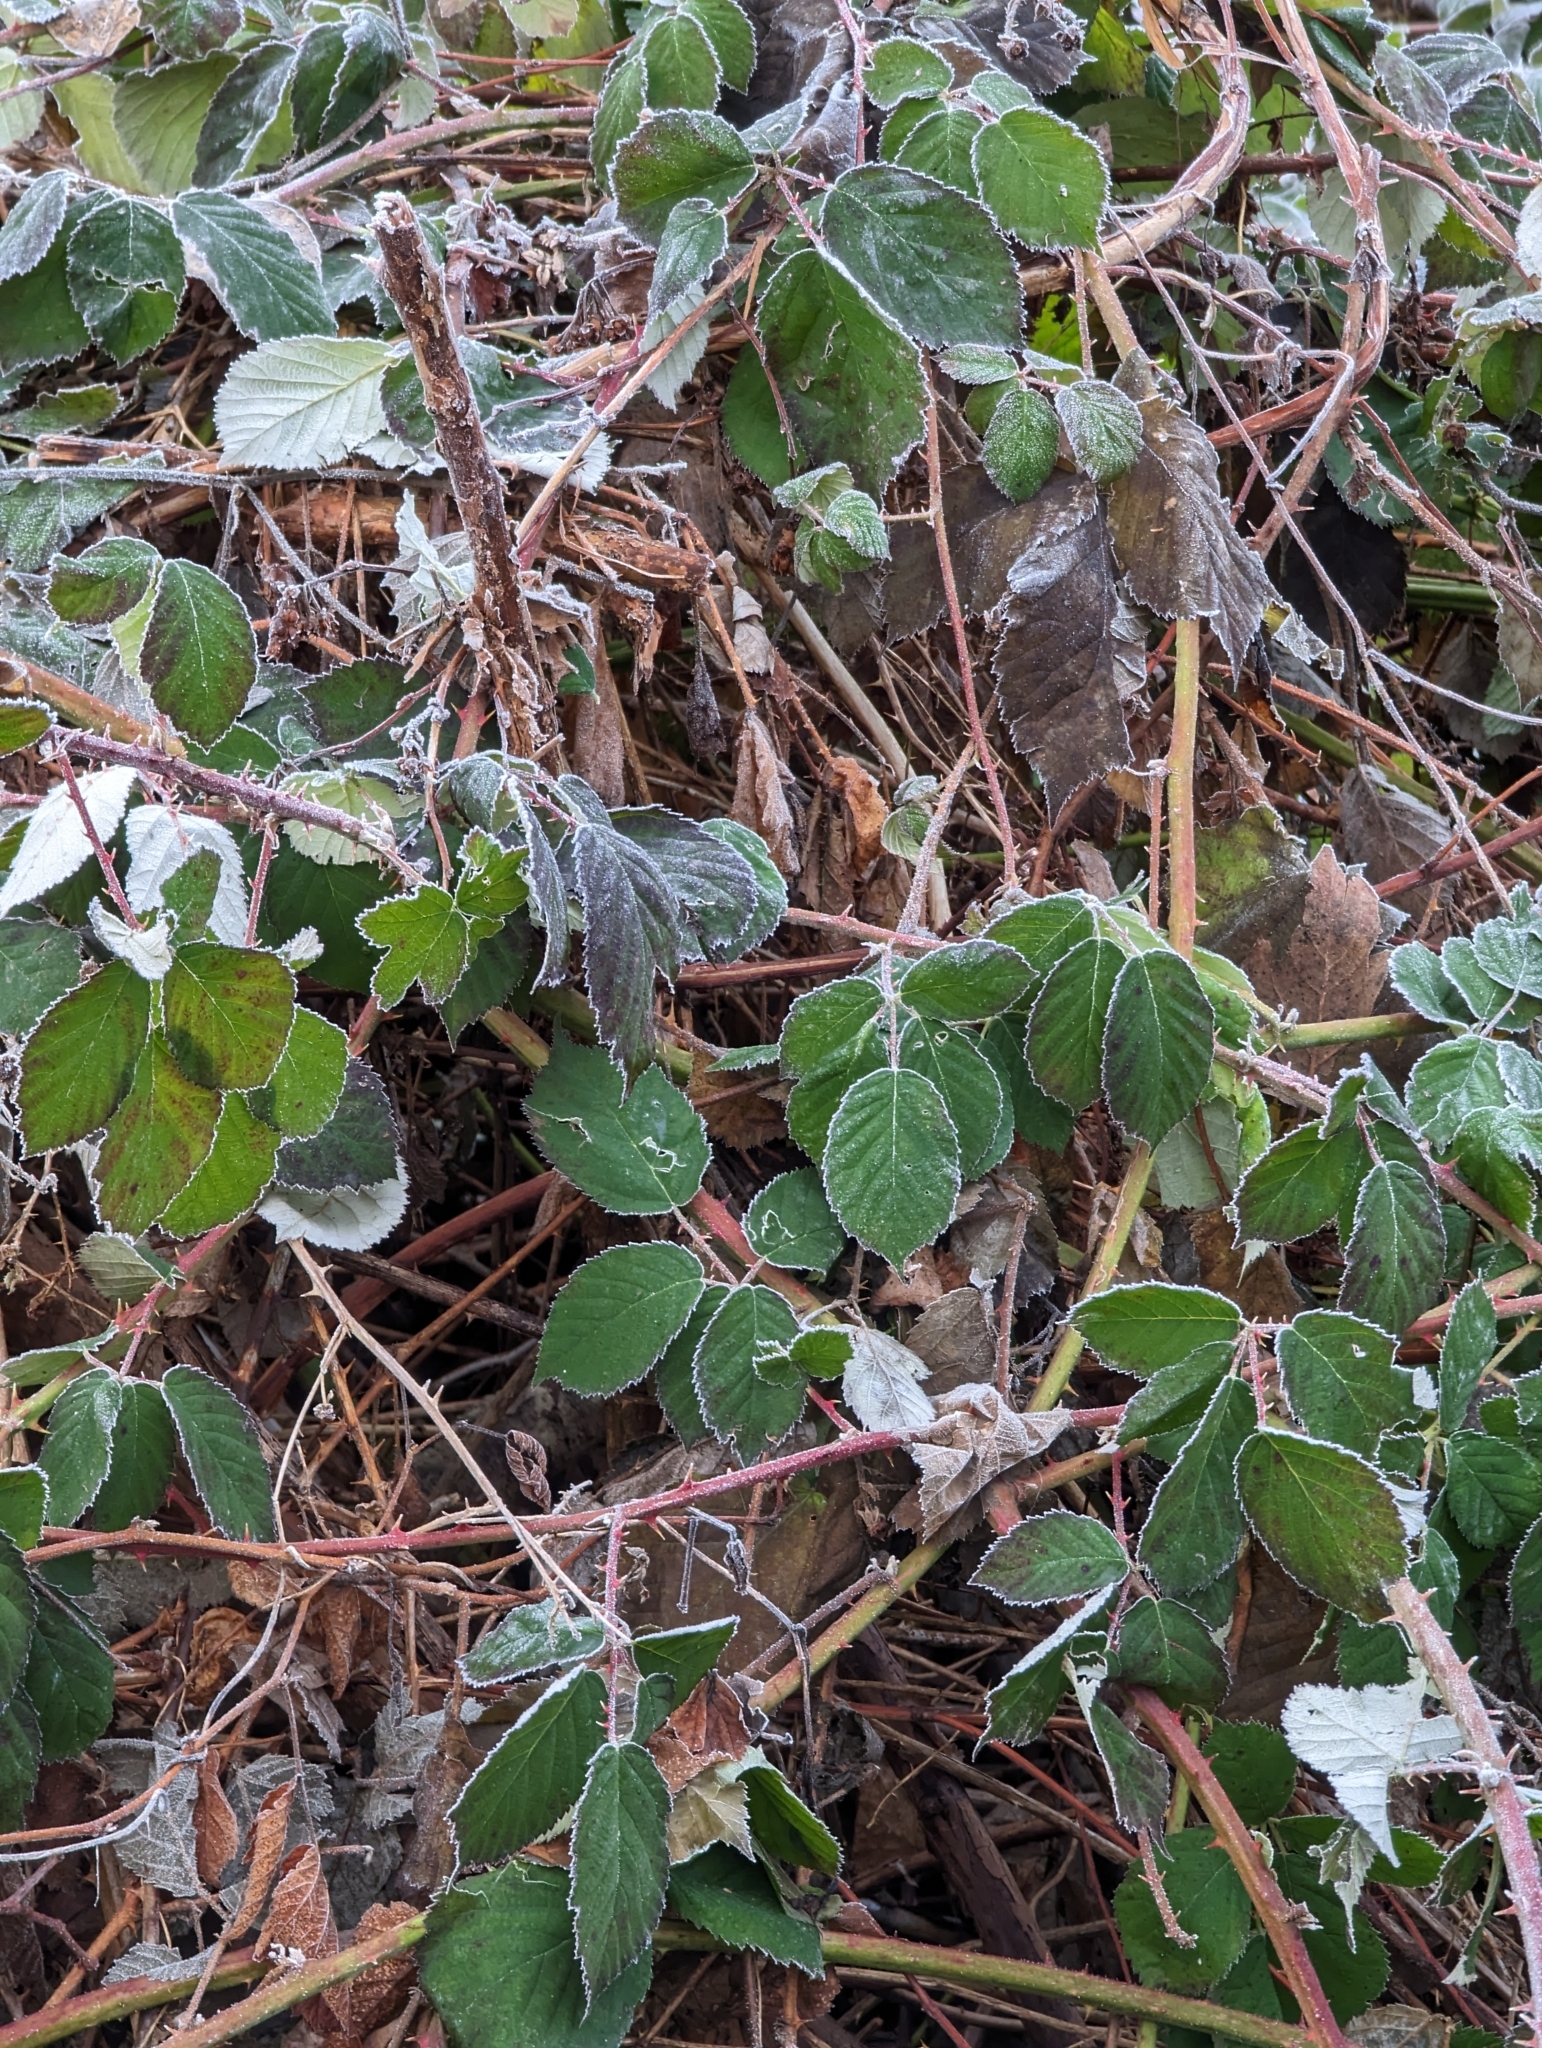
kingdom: Plantae
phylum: Tracheophyta
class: Magnoliopsida
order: Rosales
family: Rosaceae
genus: Rubus
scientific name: Rubus bifrons
